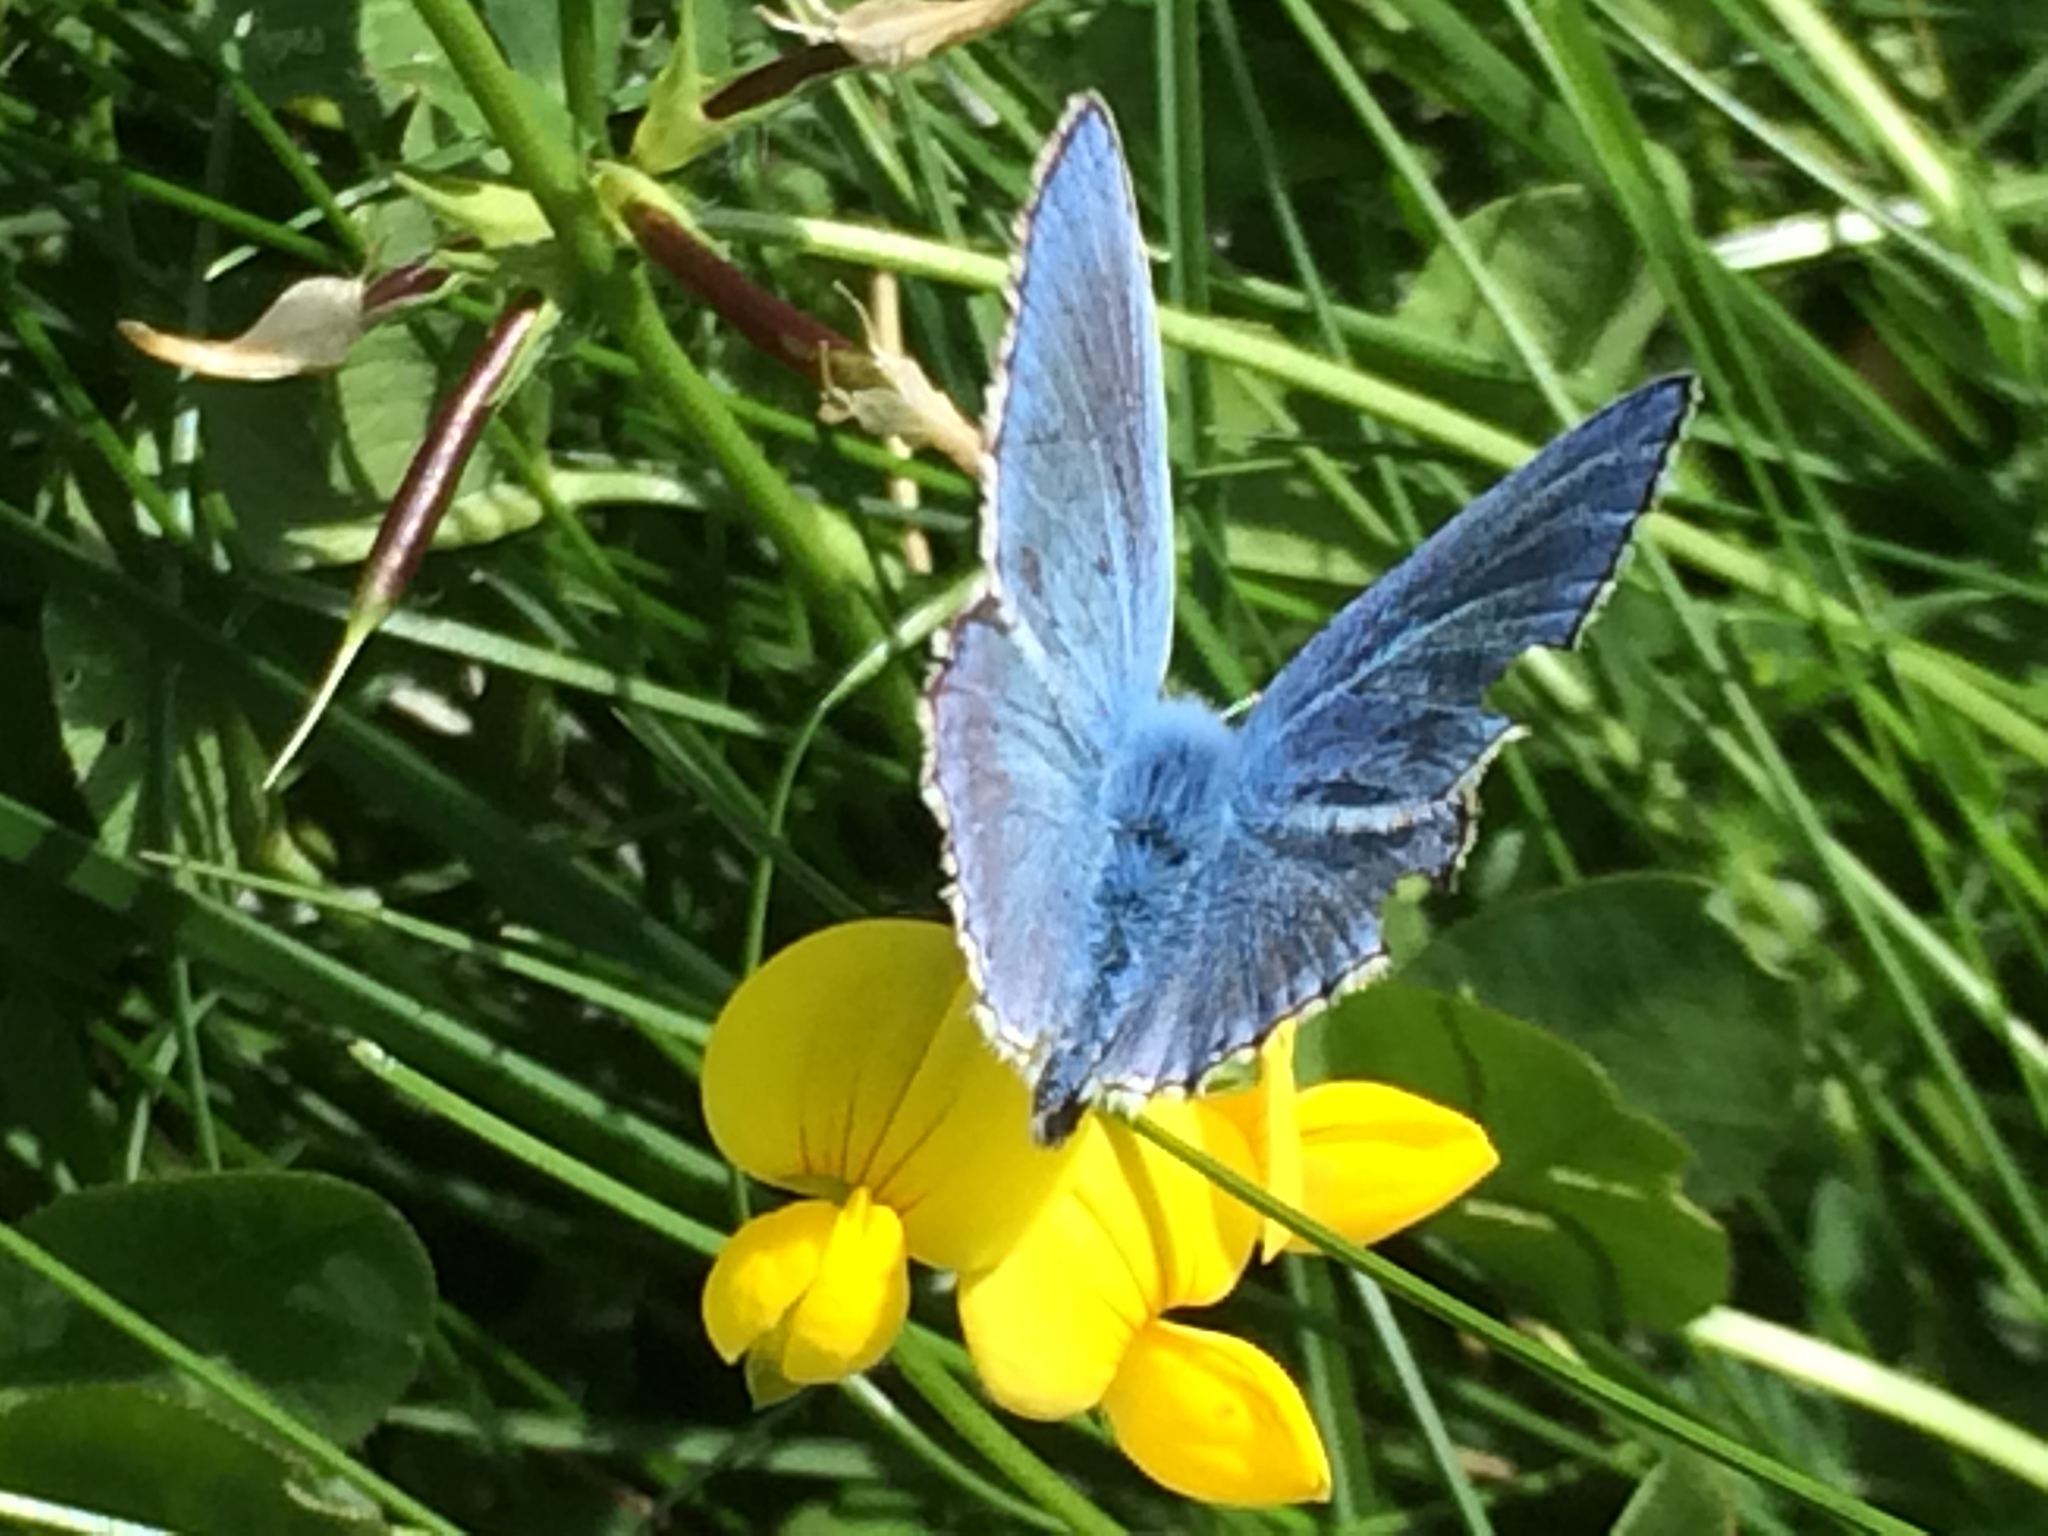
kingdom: Animalia
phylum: Arthropoda
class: Insecta
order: Lepidoptera
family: Lycaenidae
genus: Lysandra
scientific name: Lysandra bellargus
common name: Adonis blue
